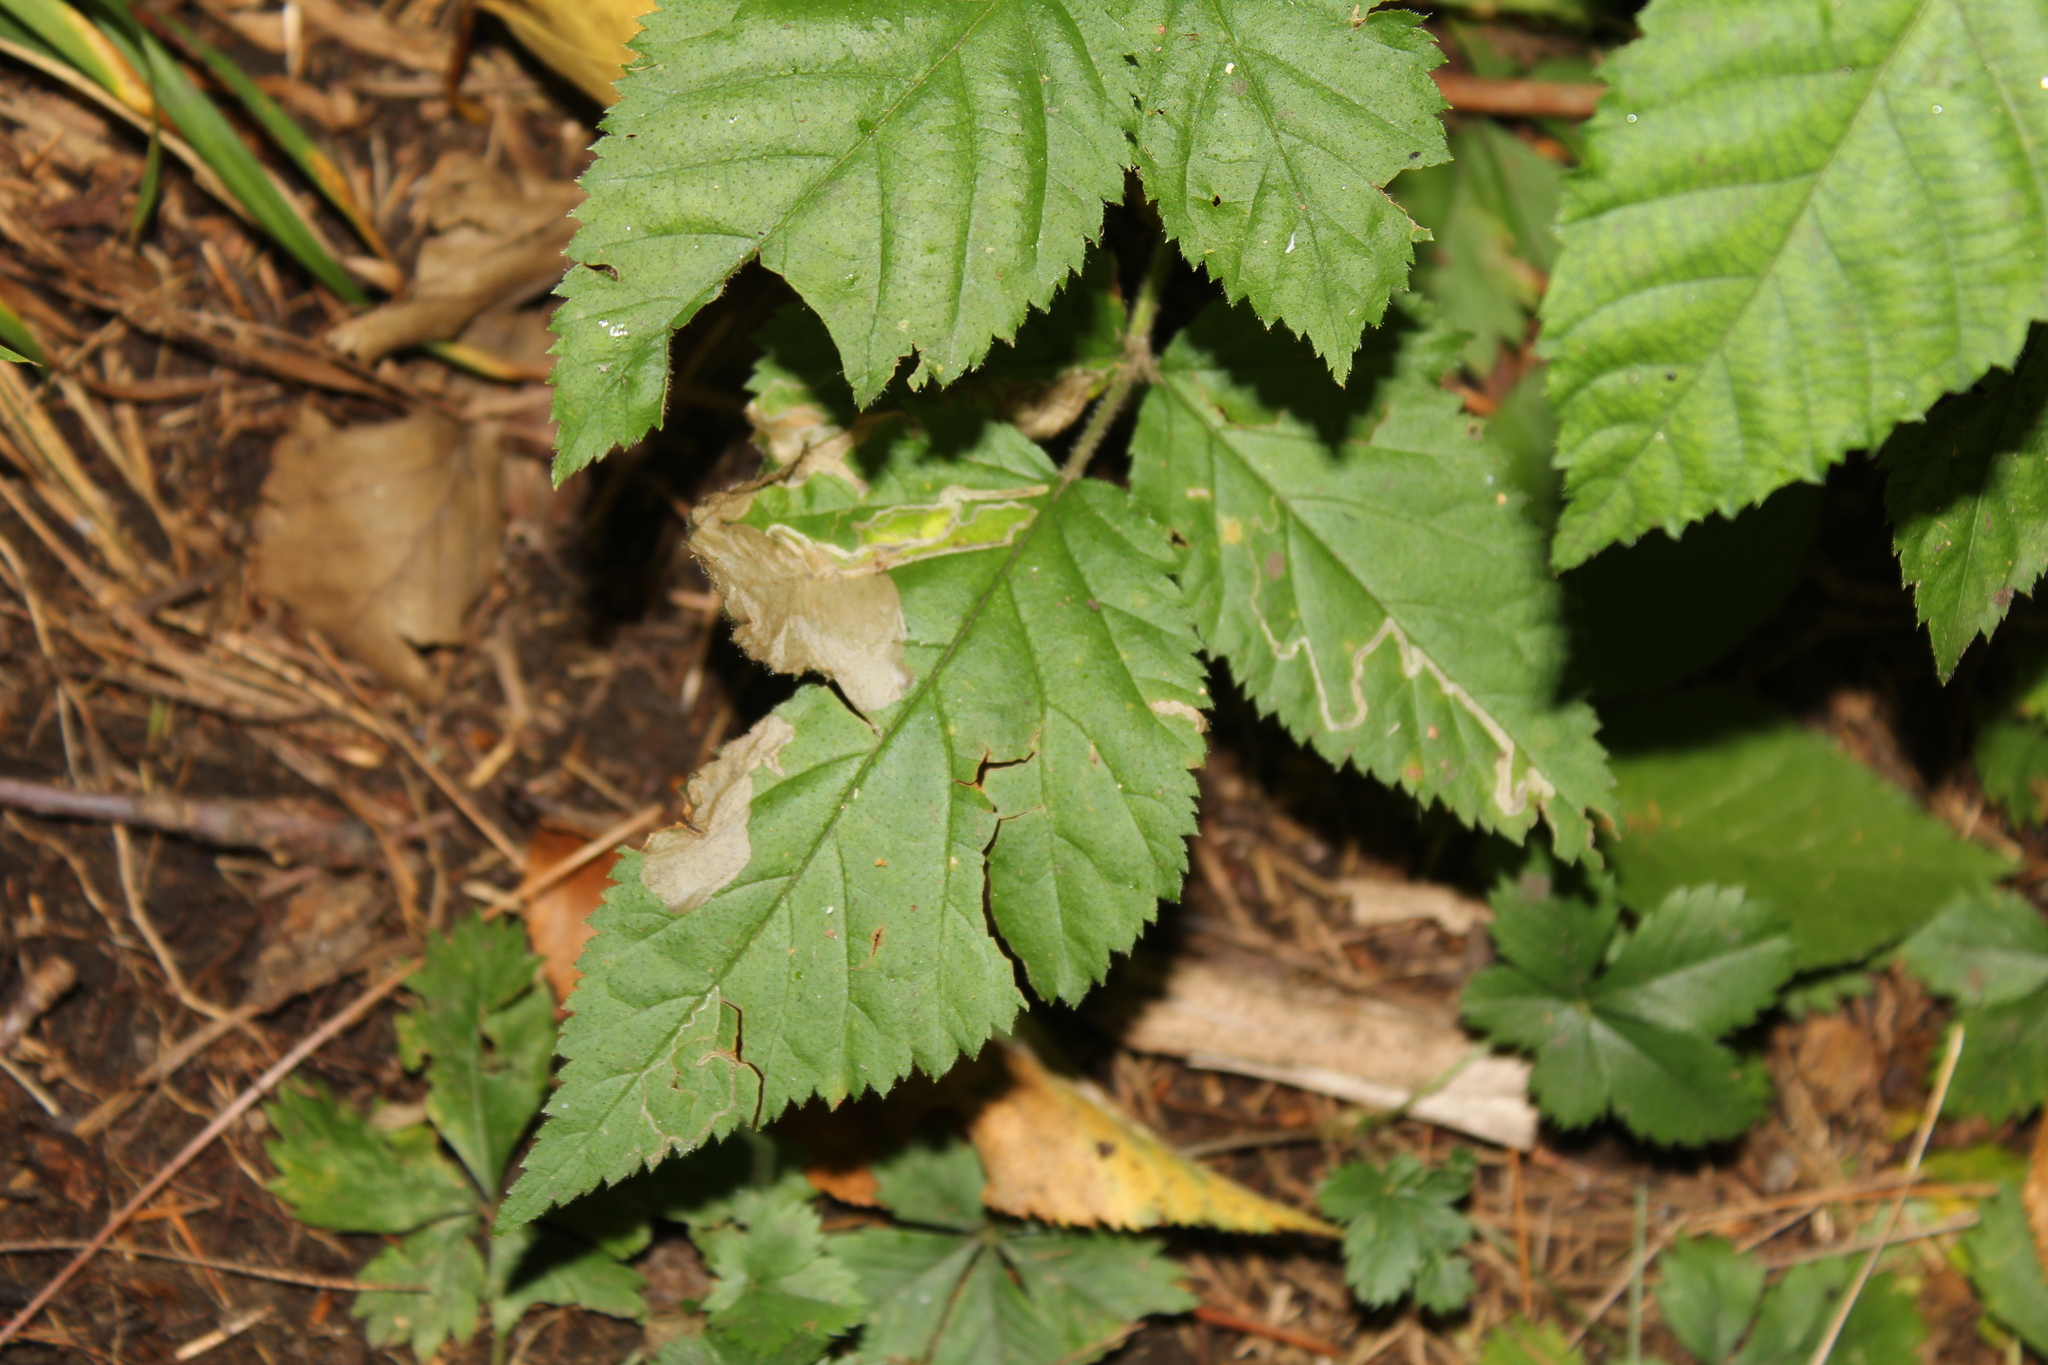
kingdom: Animalia
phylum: Arthropoda
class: Insecta
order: Lepidoptera
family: Nepticulidae
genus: Stigmella
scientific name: Stigmella villosella
